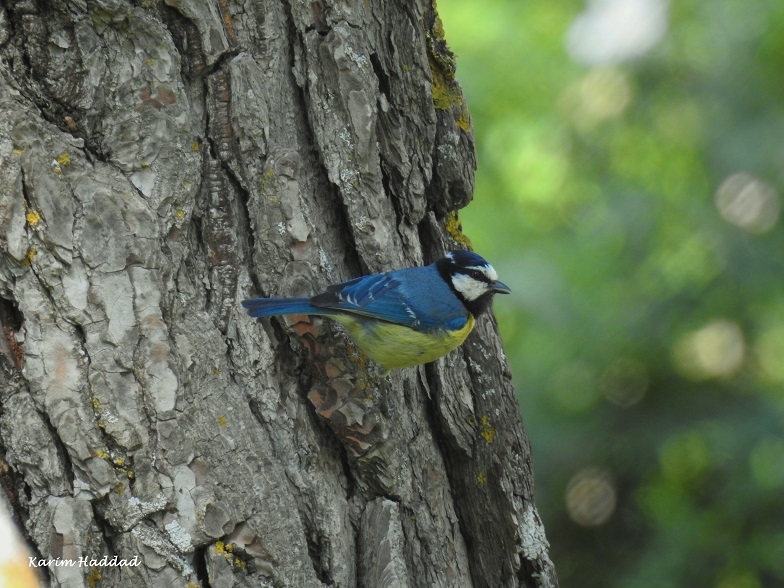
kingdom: Animalia
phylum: Chordata
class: Aves
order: Passeriformes
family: Paridae
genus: Cyanistes
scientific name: Cyanistes teneriffae
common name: African blue tit
